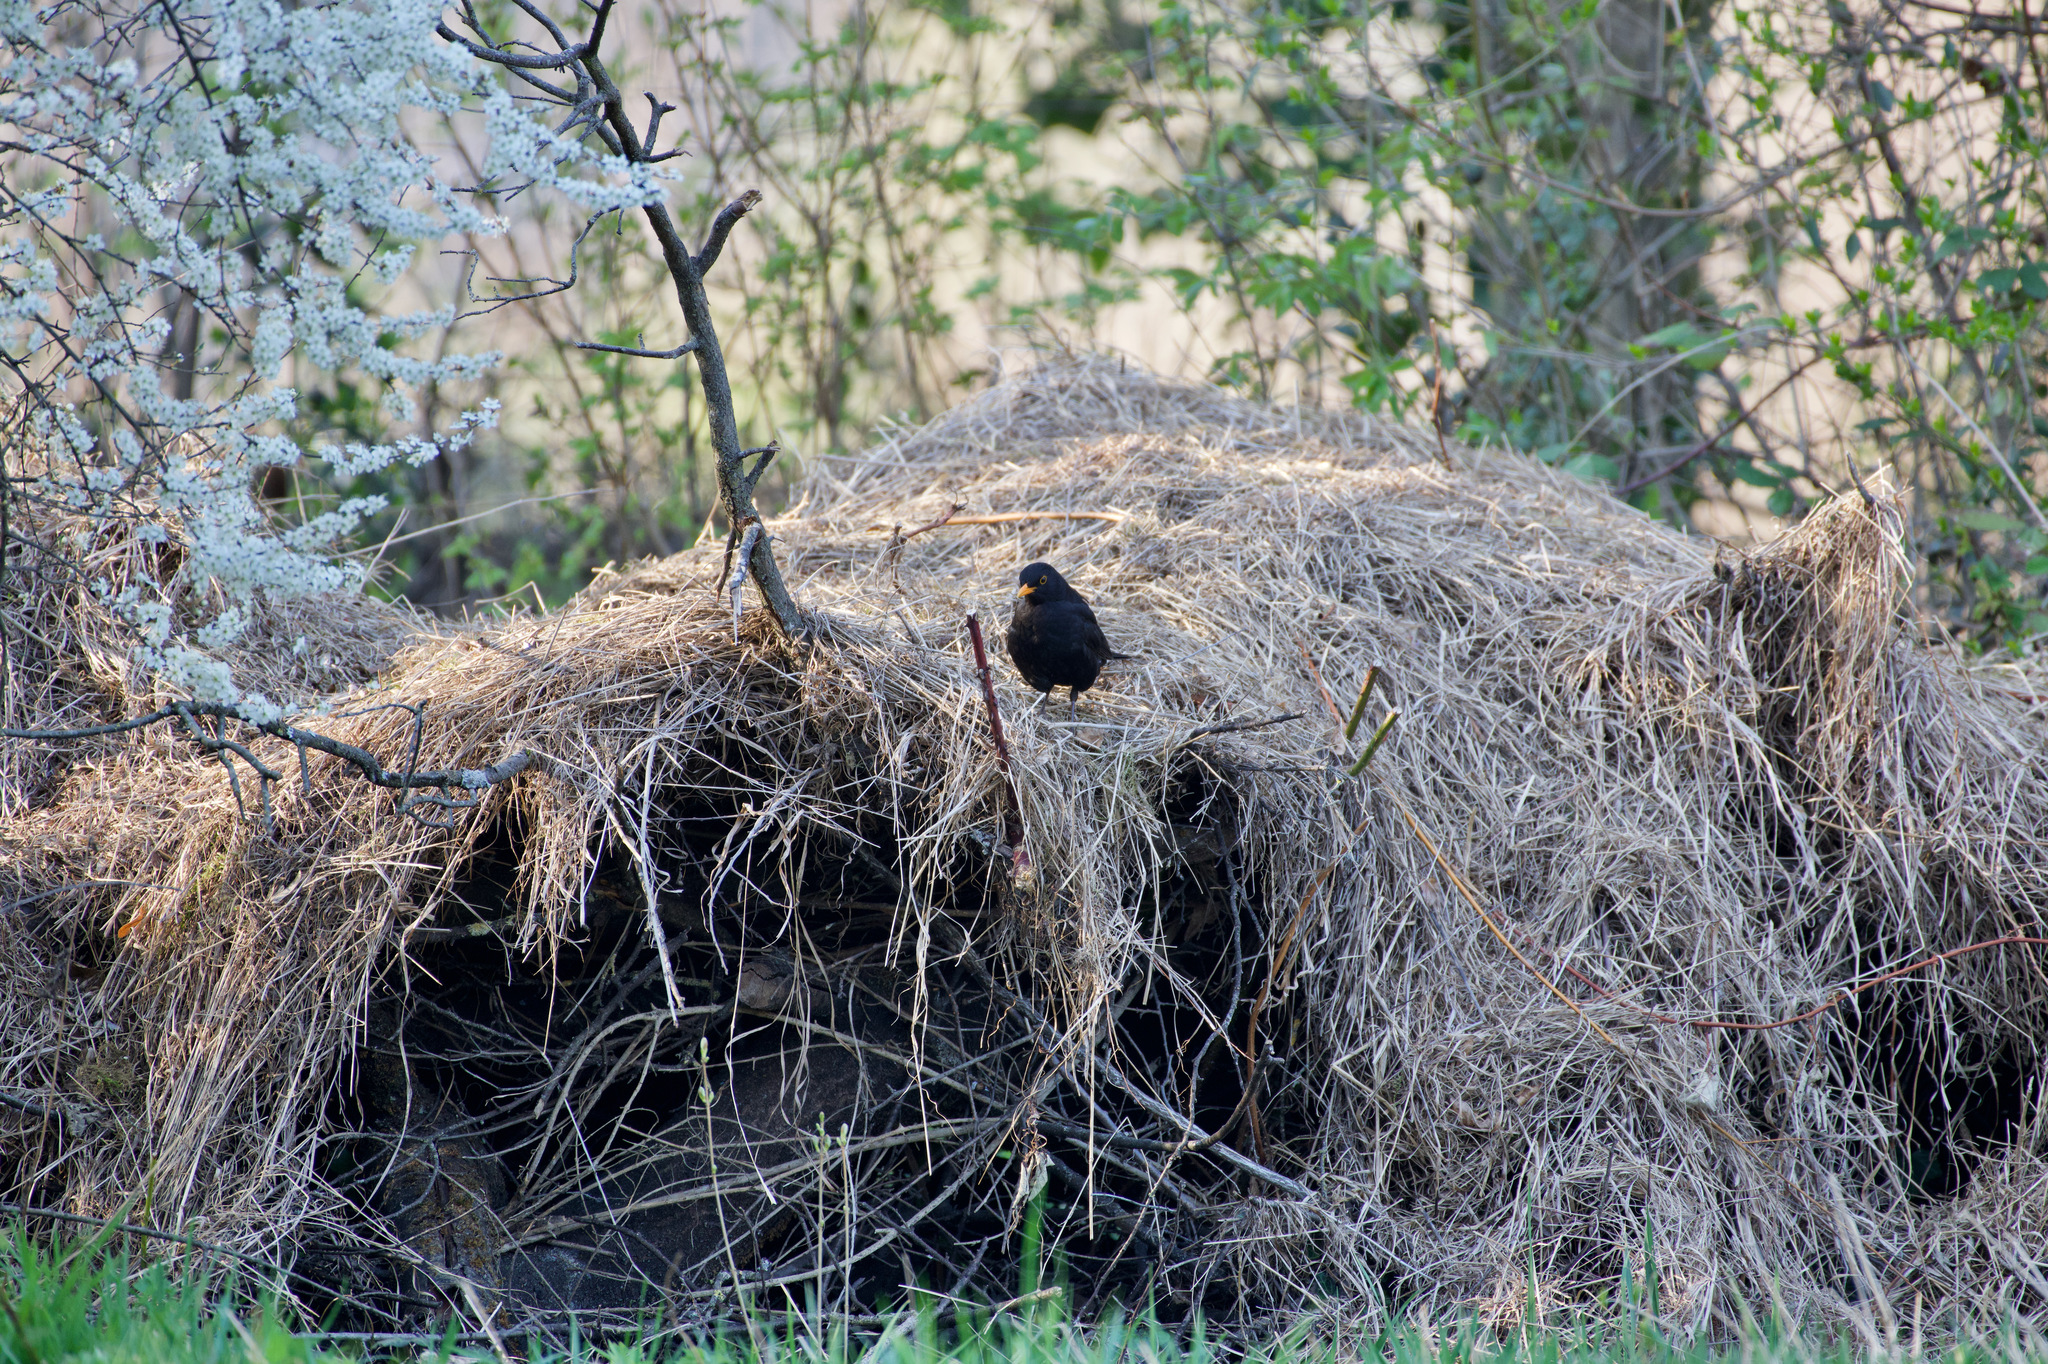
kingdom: Animalia
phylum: Chordata
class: Aves
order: Passeriformes
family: Turdidae
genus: Turdus
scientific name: Turdus merula
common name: Common blackbird
